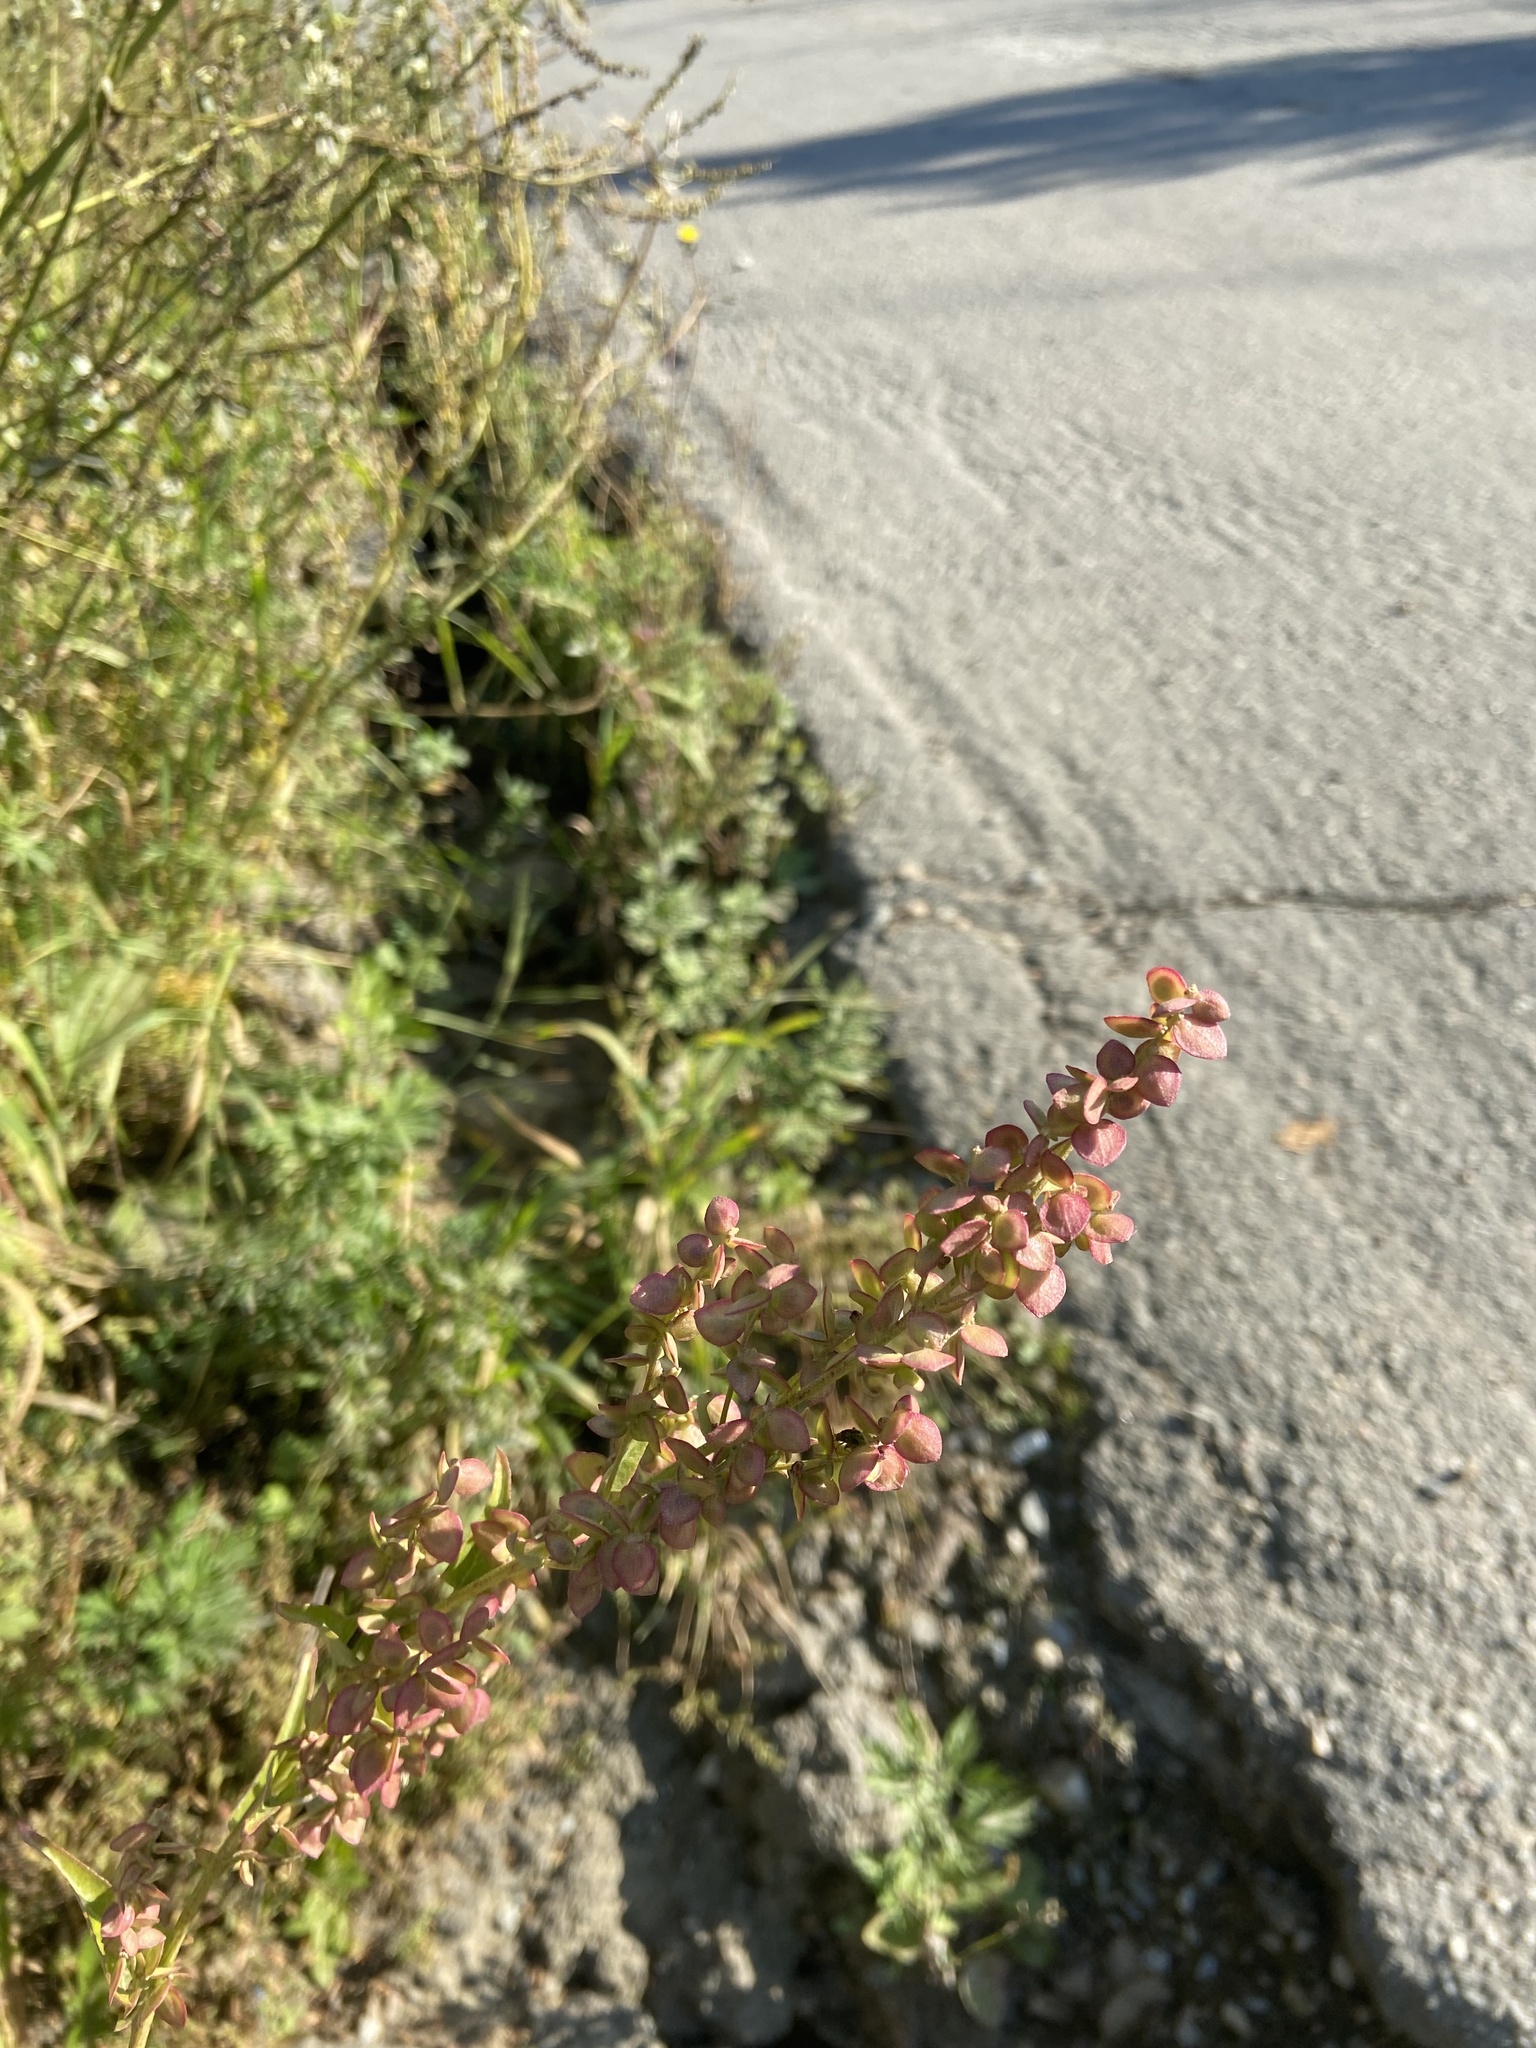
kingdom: Plantae
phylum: Tracheophyta
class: Magnoliopsida
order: Caryophyllales
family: Amaranthaceae
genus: Atriplex
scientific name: Atriplex sagittata
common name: Purple orache
